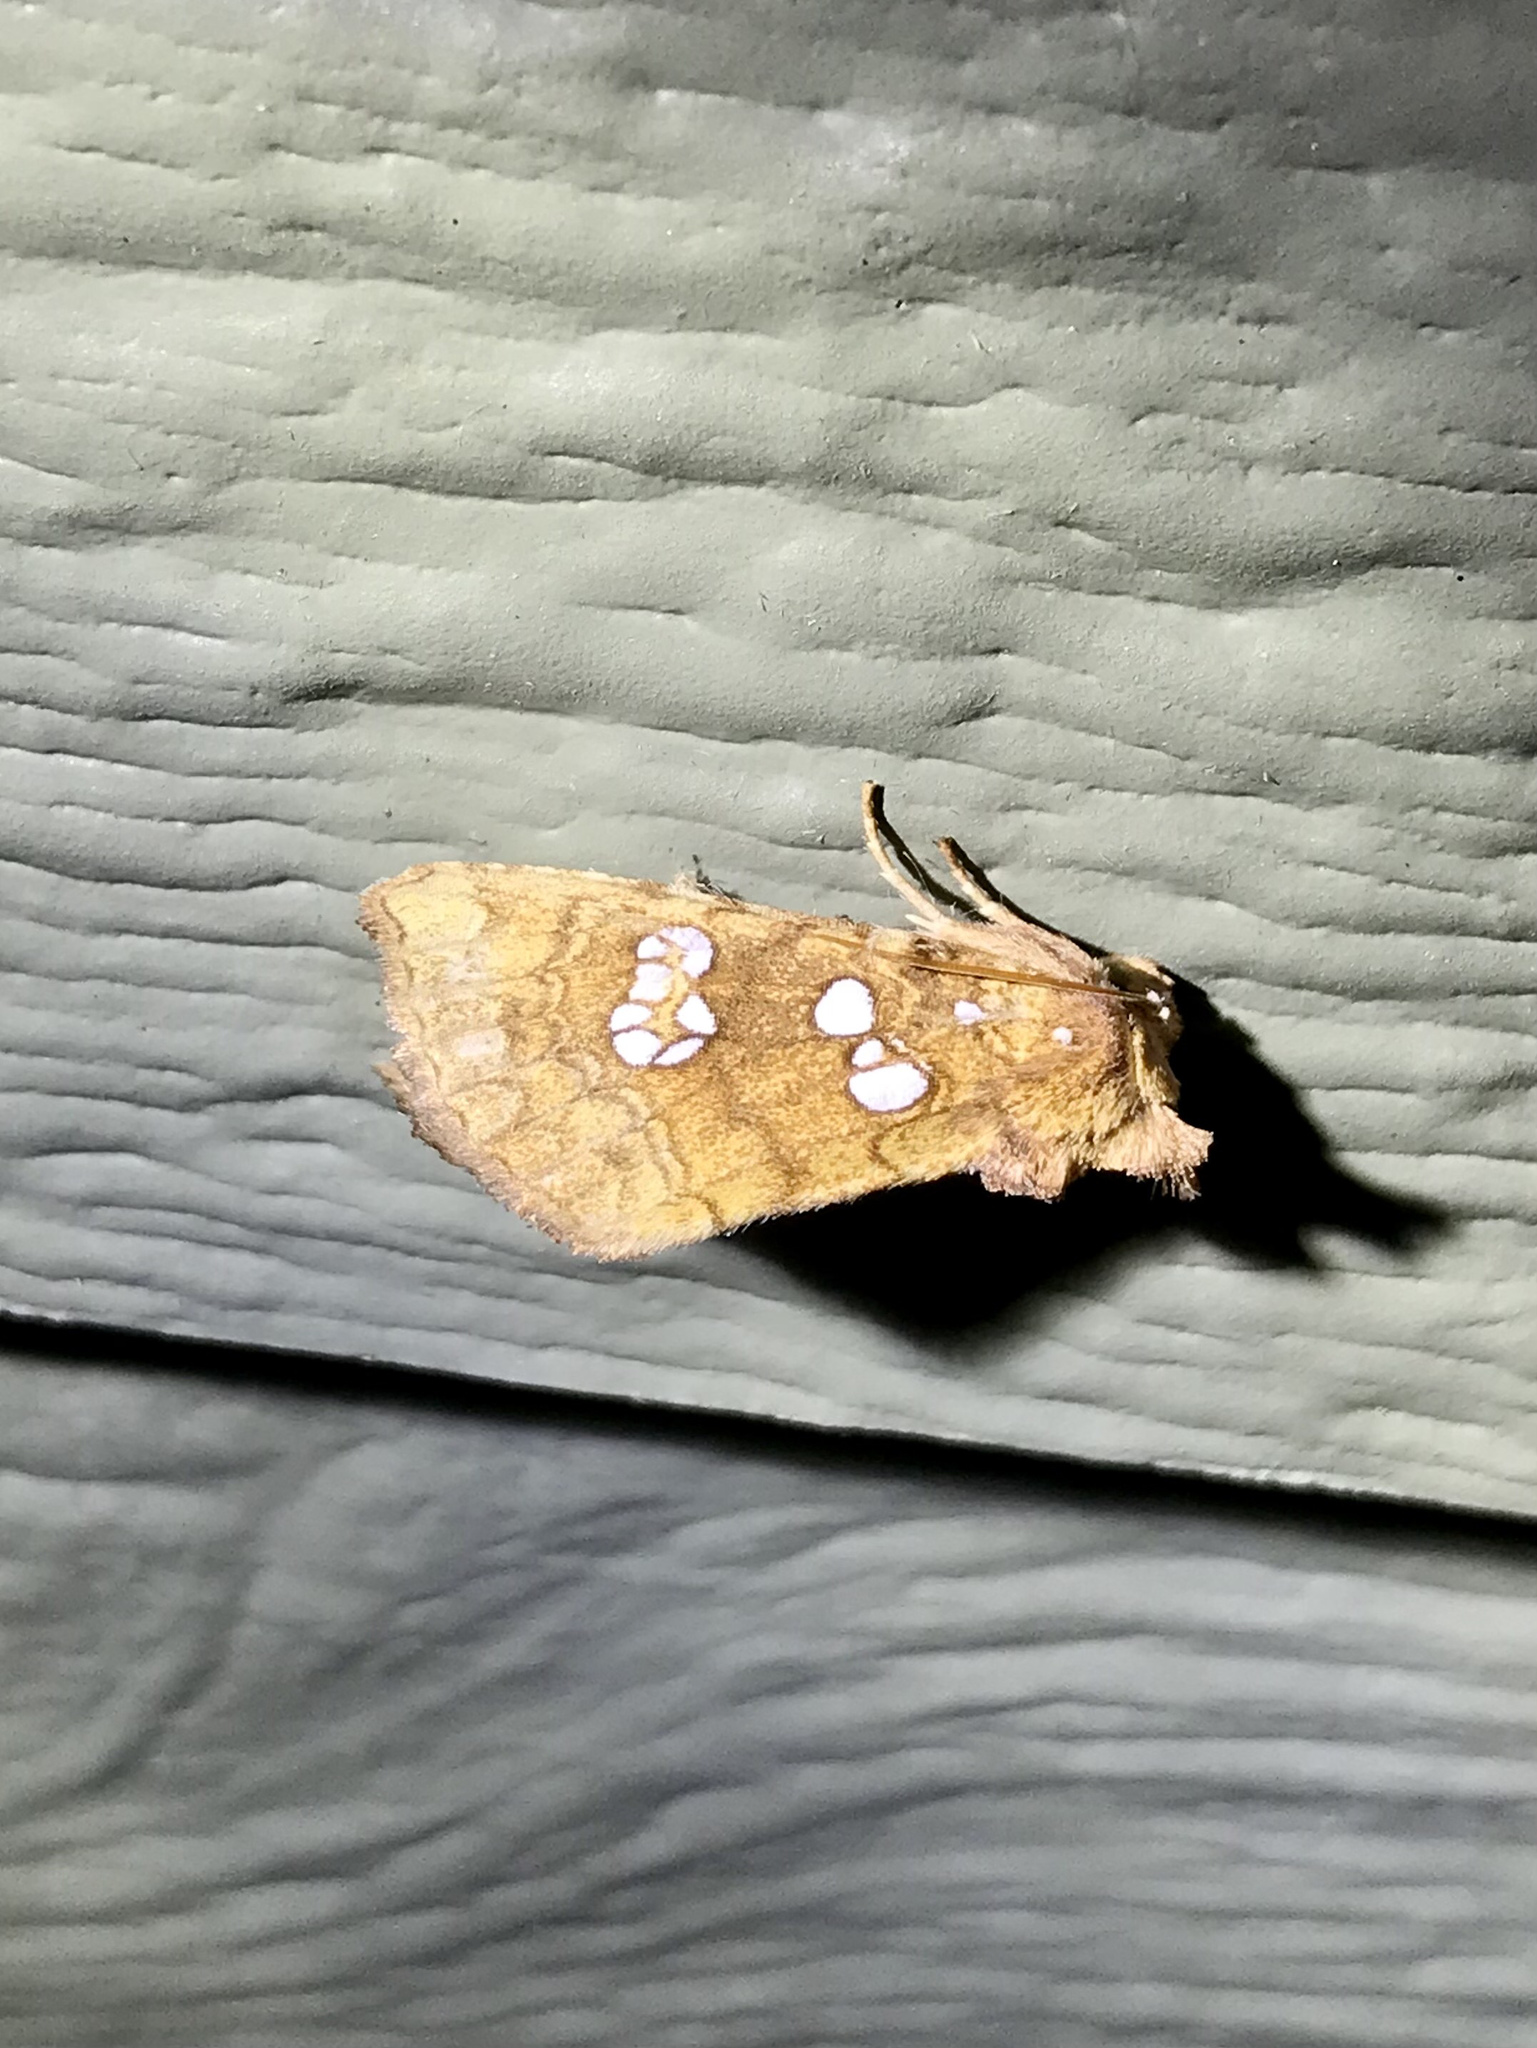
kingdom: Animalia
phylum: Arthropoda
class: Insecta
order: Lepidoptera
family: Noctuidae
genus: Papaipema
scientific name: Papaipema furcata
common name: Ash tip borer moth
